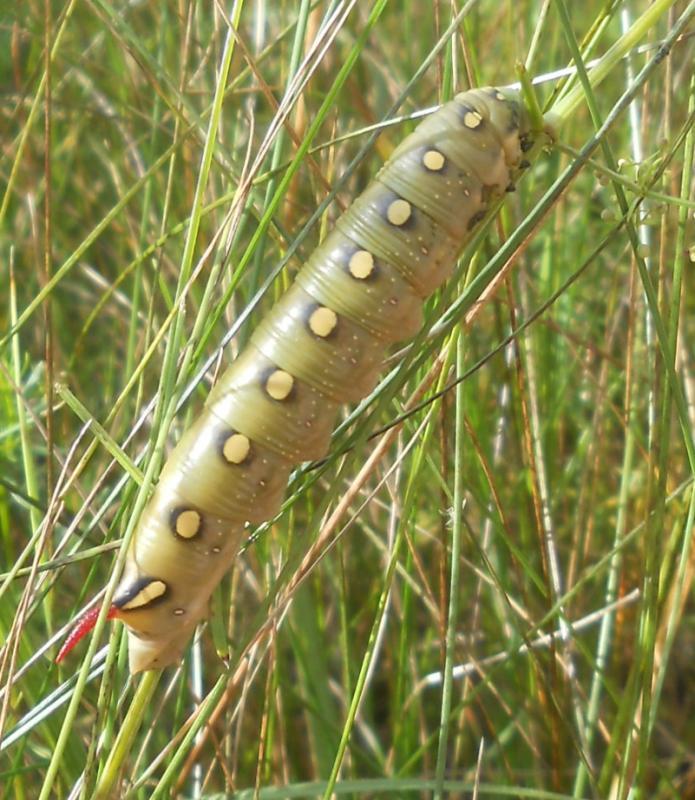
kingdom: Animalia
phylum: Arthropoda
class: Insecta
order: Lepidoptera
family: Sphingidae
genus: Hyles
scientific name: Hyles gallii
